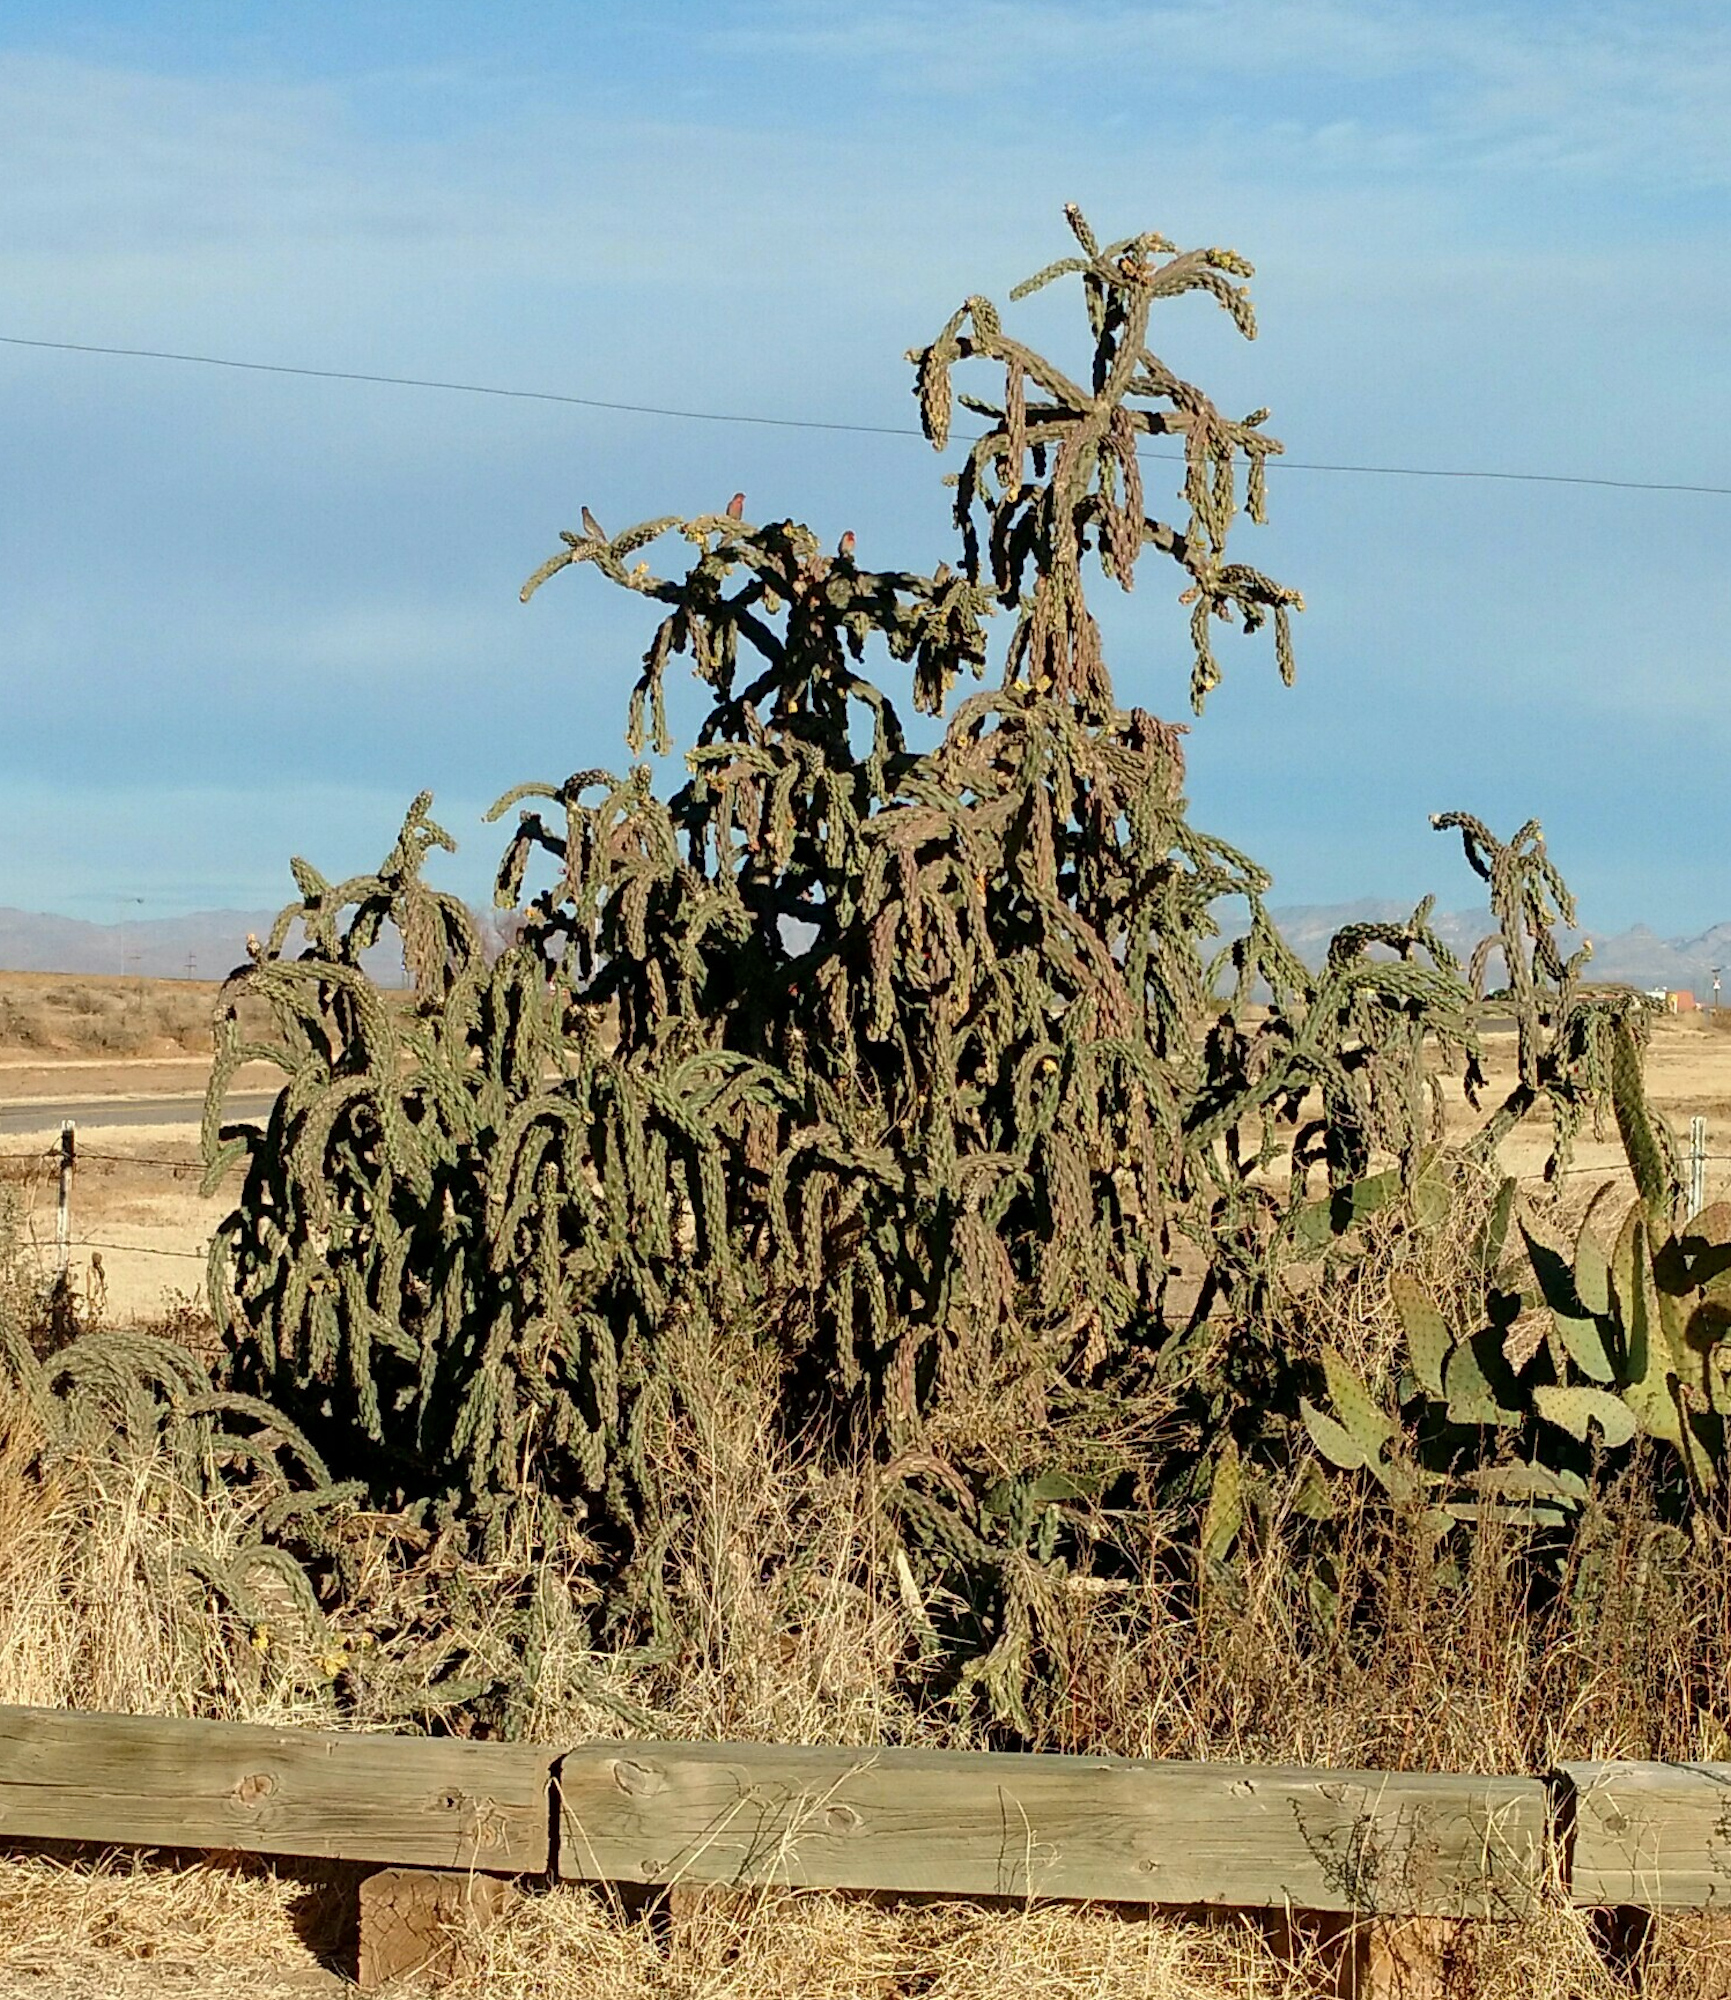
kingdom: Plantae
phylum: Tracheophyta
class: Magnoliopsida
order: Caryophyllales
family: Cactaceae
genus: Cylindropuntia
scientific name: Cylindropuntia imbricata
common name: Candelabrum cactus
